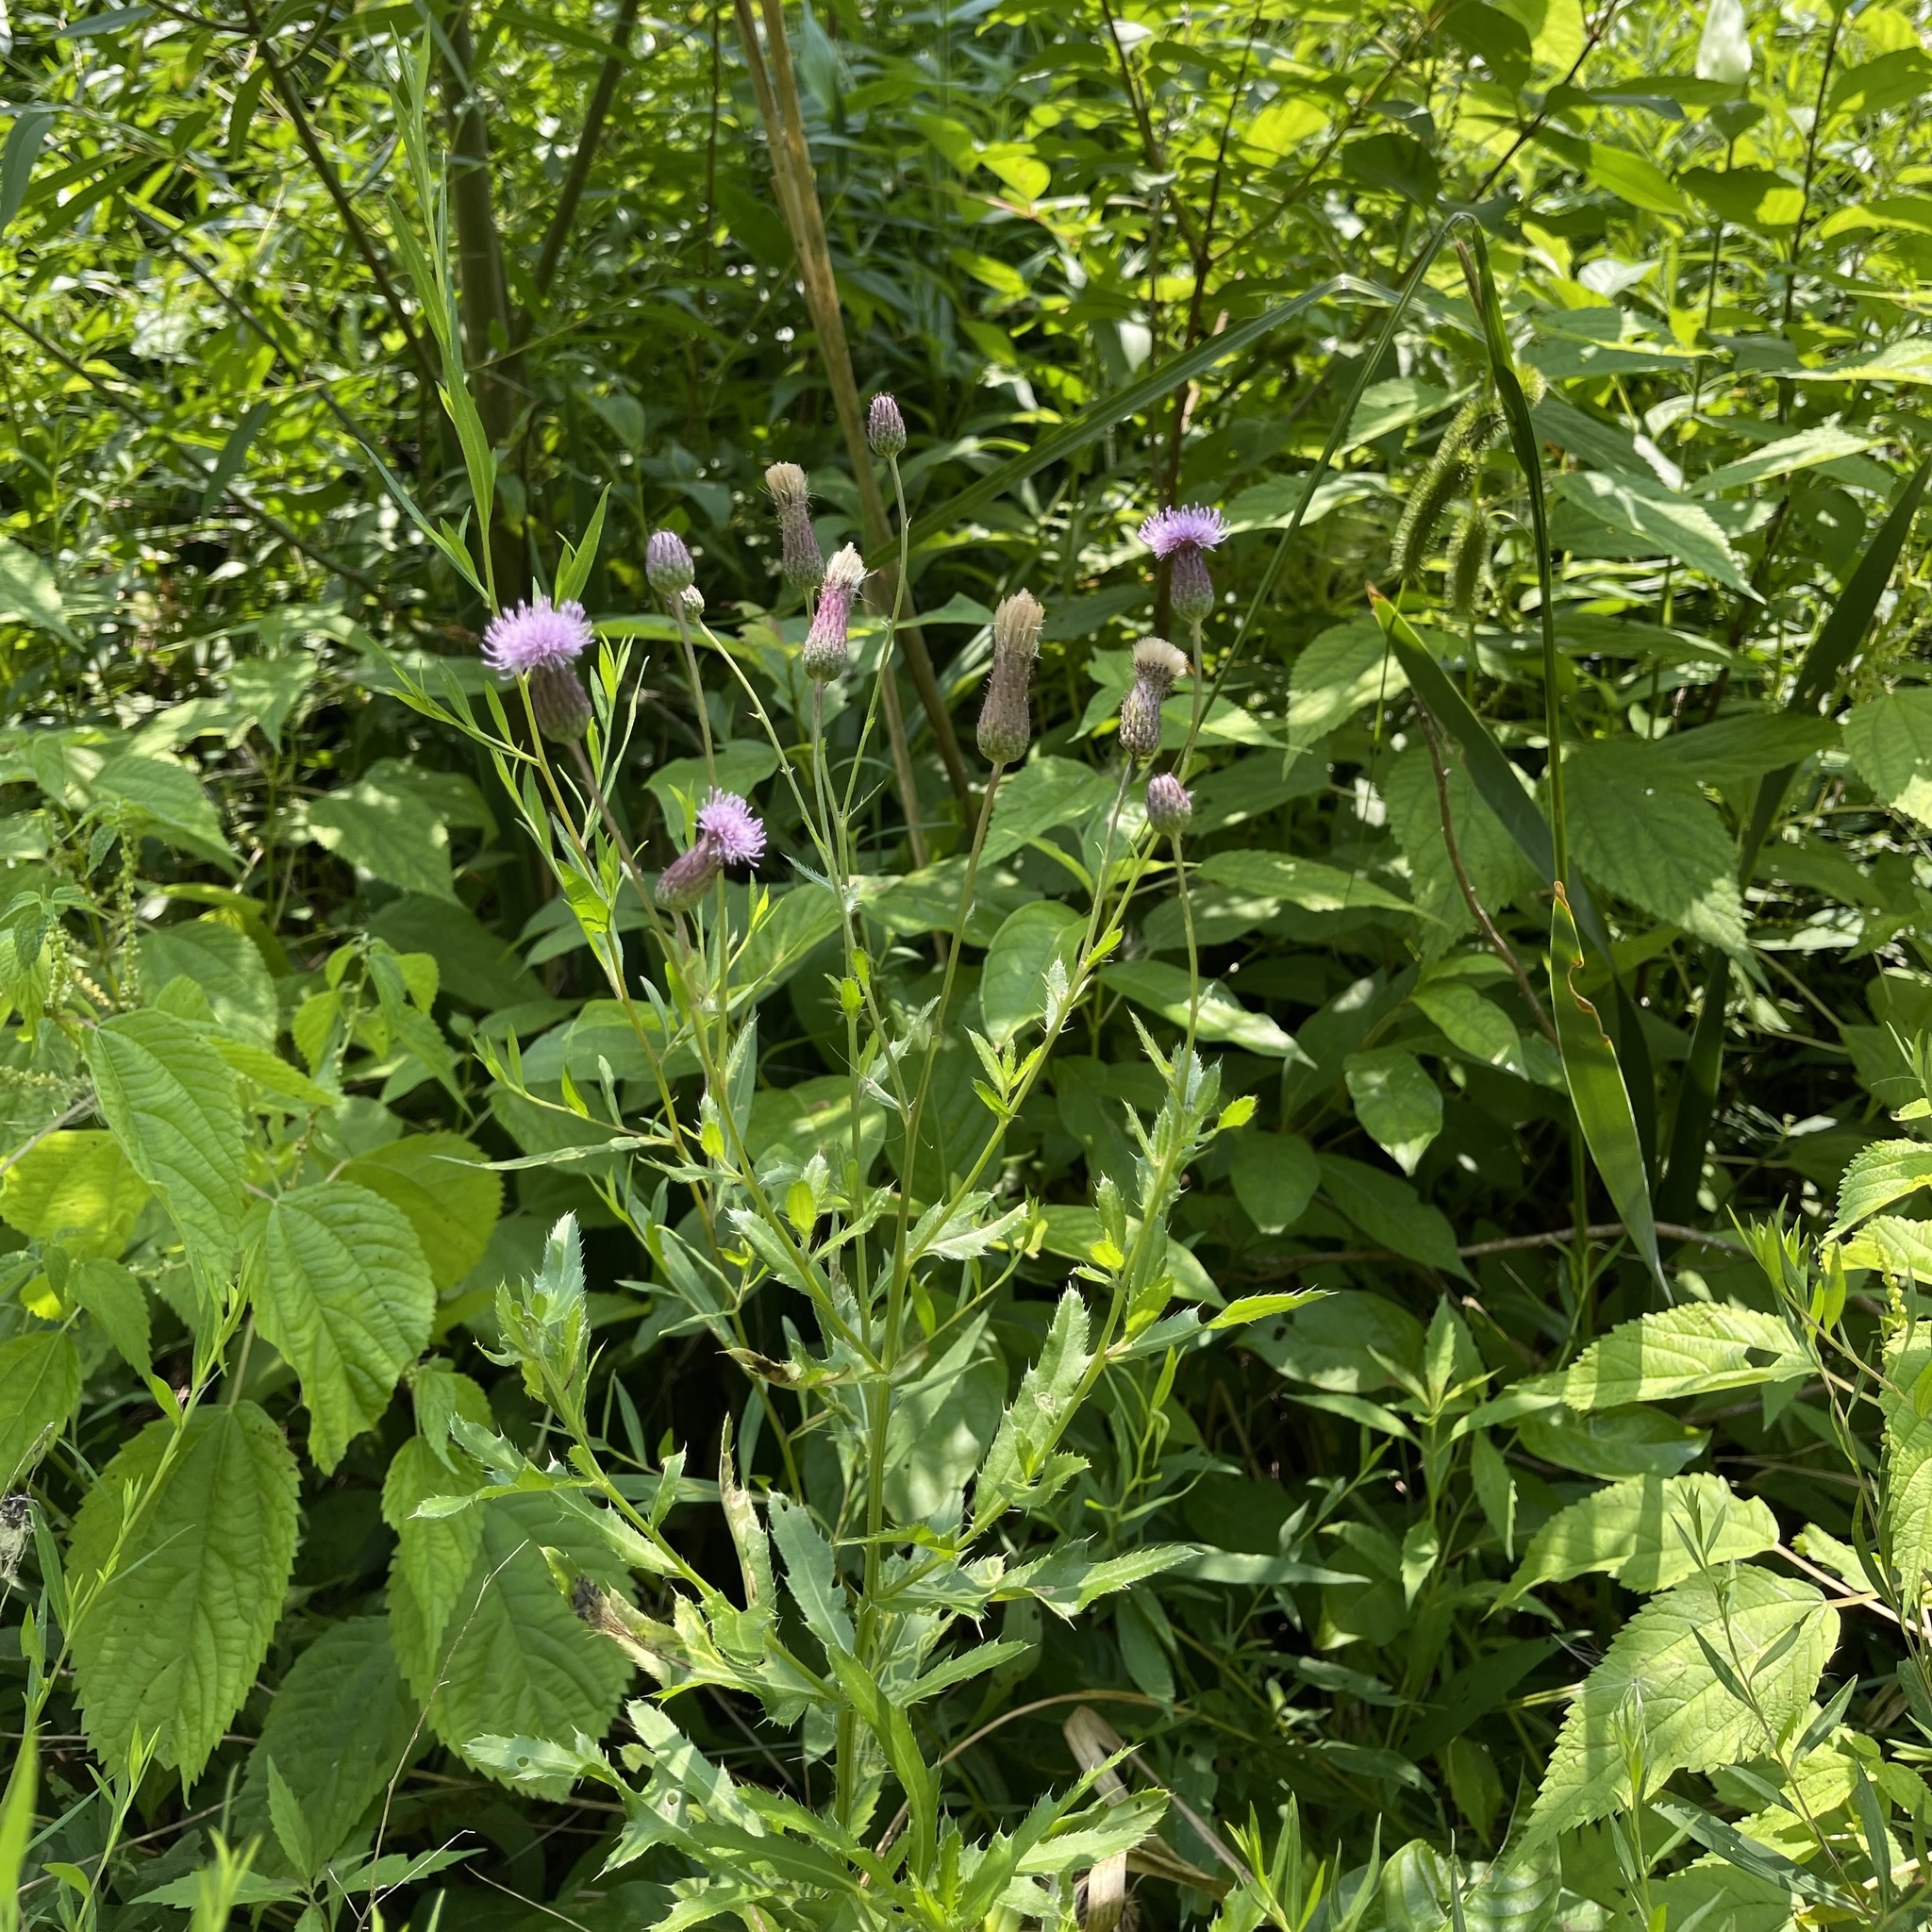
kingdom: Plantae
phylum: Tracheophyta
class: Magnoliopsida
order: Asterales
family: Asteraceae
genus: Cirsium
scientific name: Cirsium arvense
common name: Creeping thistle
